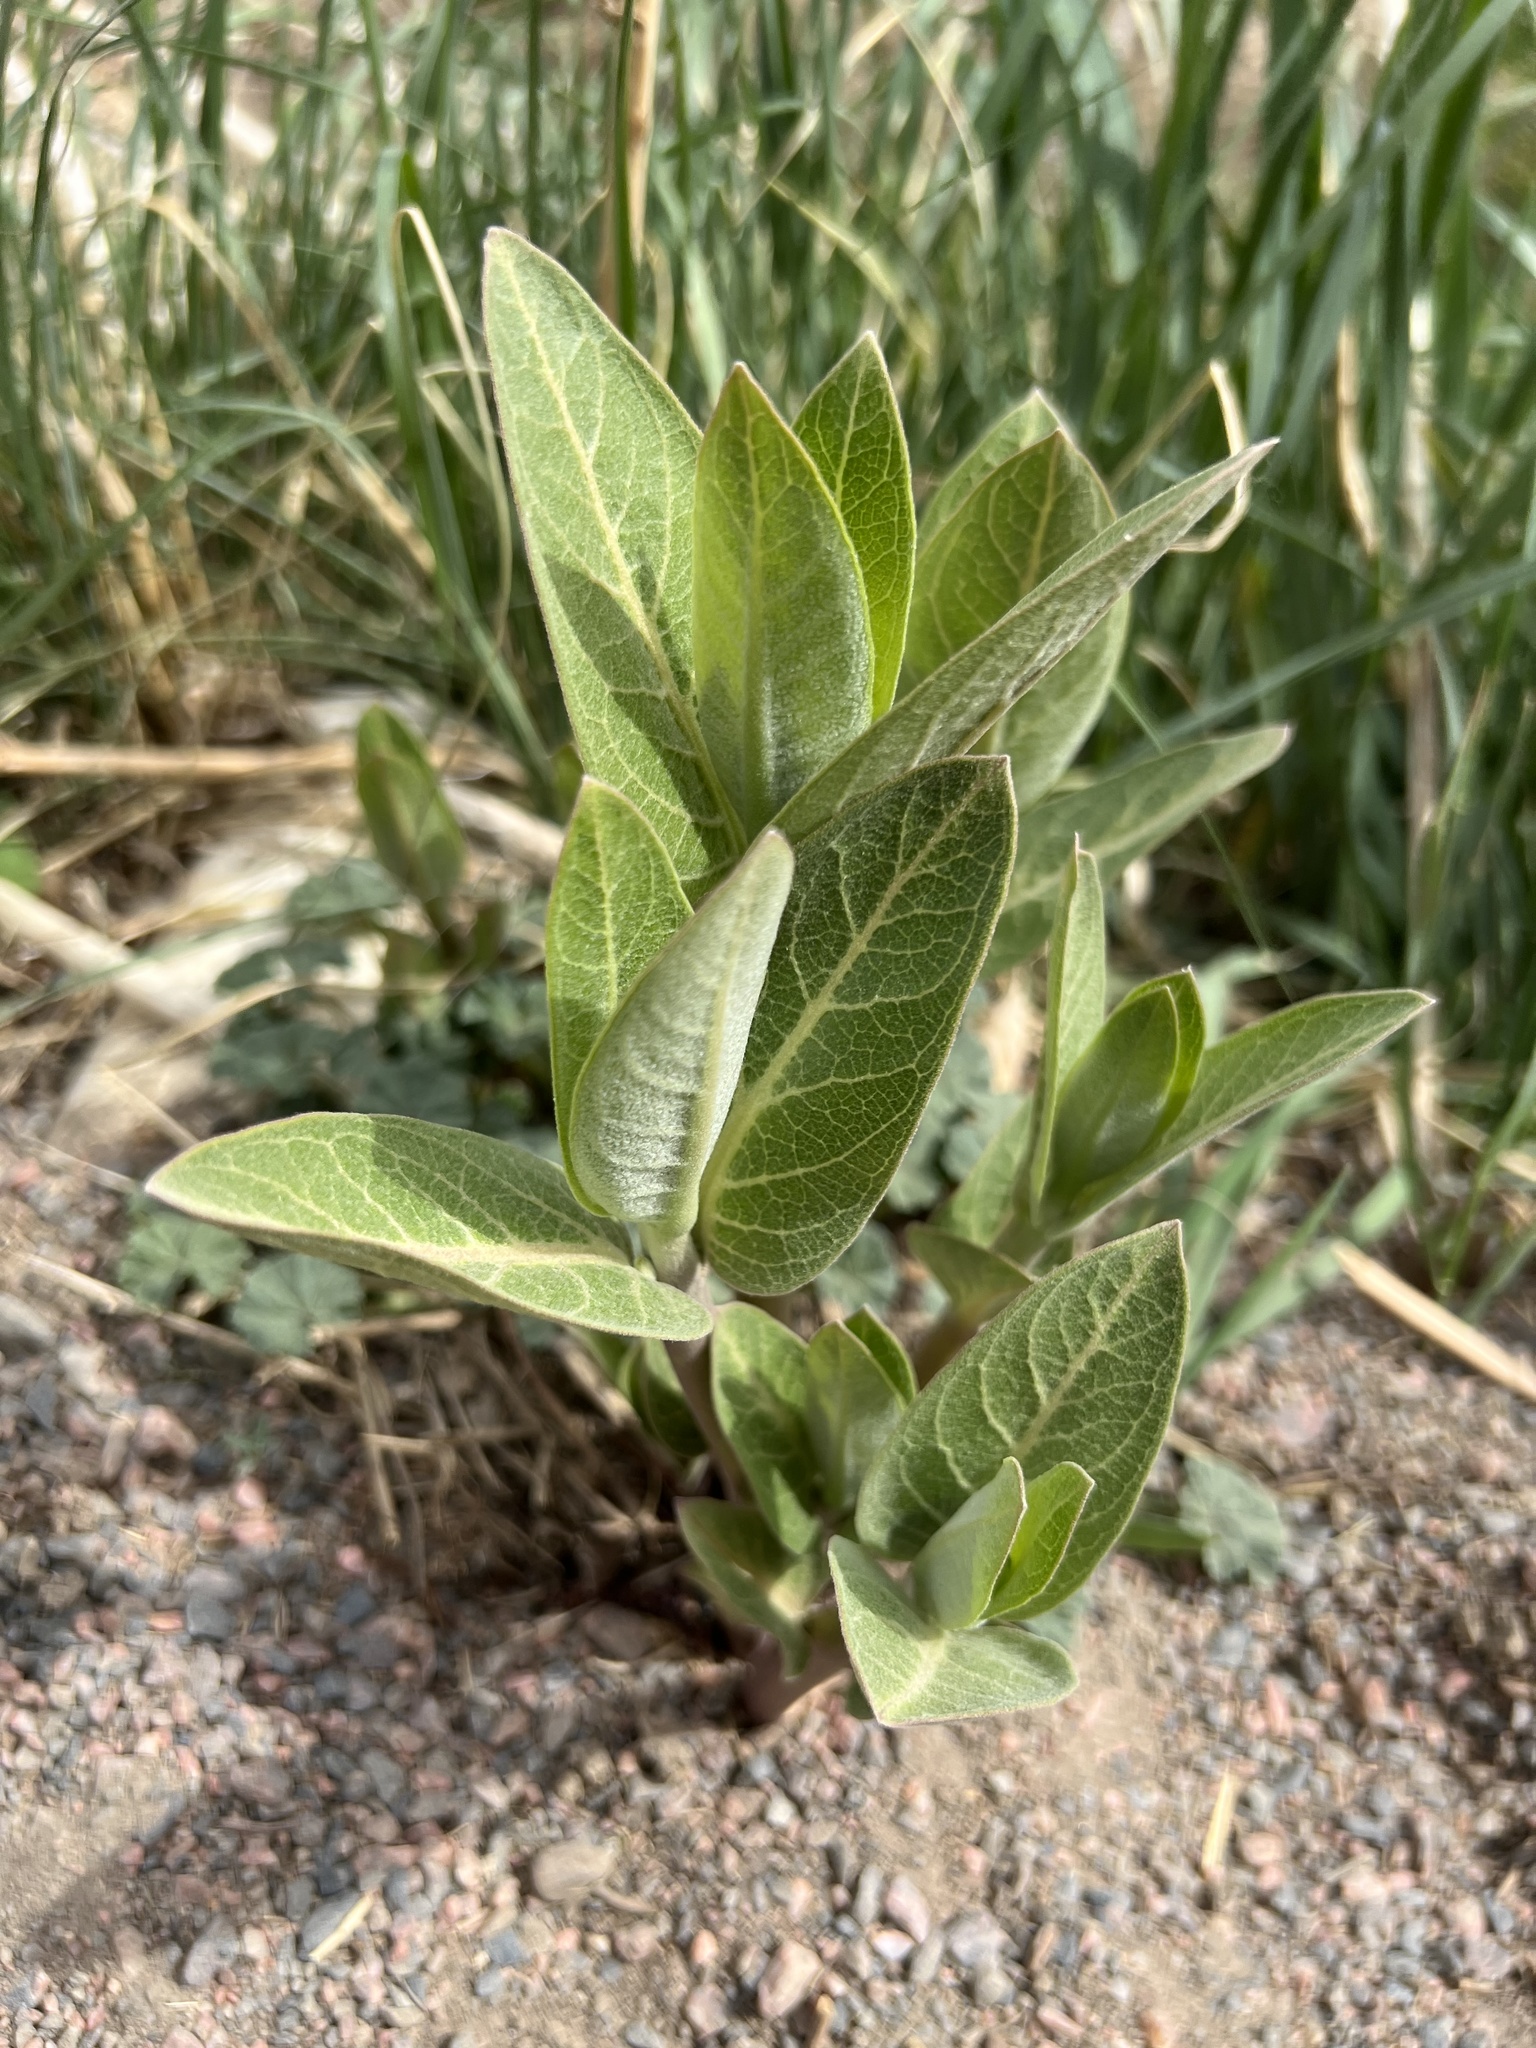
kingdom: Plantae
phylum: Tracheophyta
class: Magnoliopsida
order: Gentianales
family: Apocynaceae
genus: Asclepias
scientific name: Asclepias speciosa
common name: Showy milkweed
